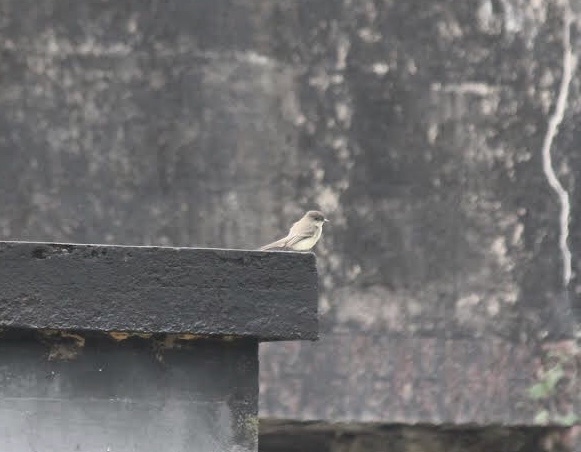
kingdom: Animalia
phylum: Chordata
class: Aves
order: Passeriformes
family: Tyrannidae
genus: Sayornis
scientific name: Sayornis phoebe
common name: Eastern phoebe
